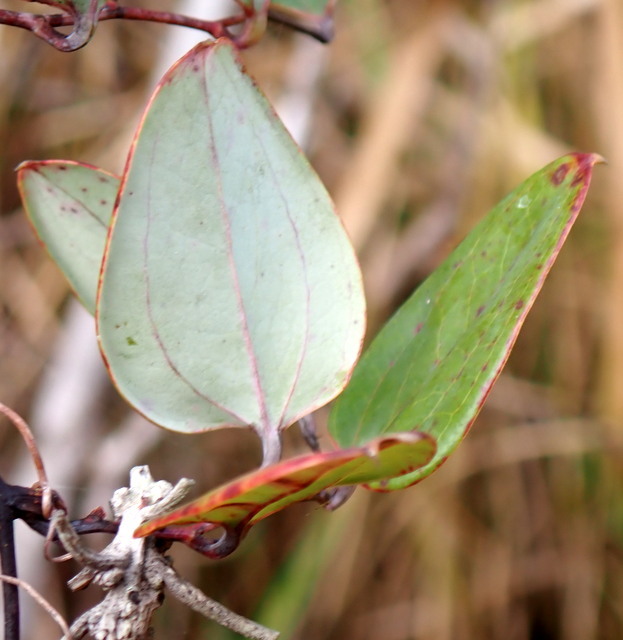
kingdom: Plantae
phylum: Tracheophyta
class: Liliopsida
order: Liliales
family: Smilacaceae
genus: Smilax
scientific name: Smilax glauca
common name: Cat greenbrier
